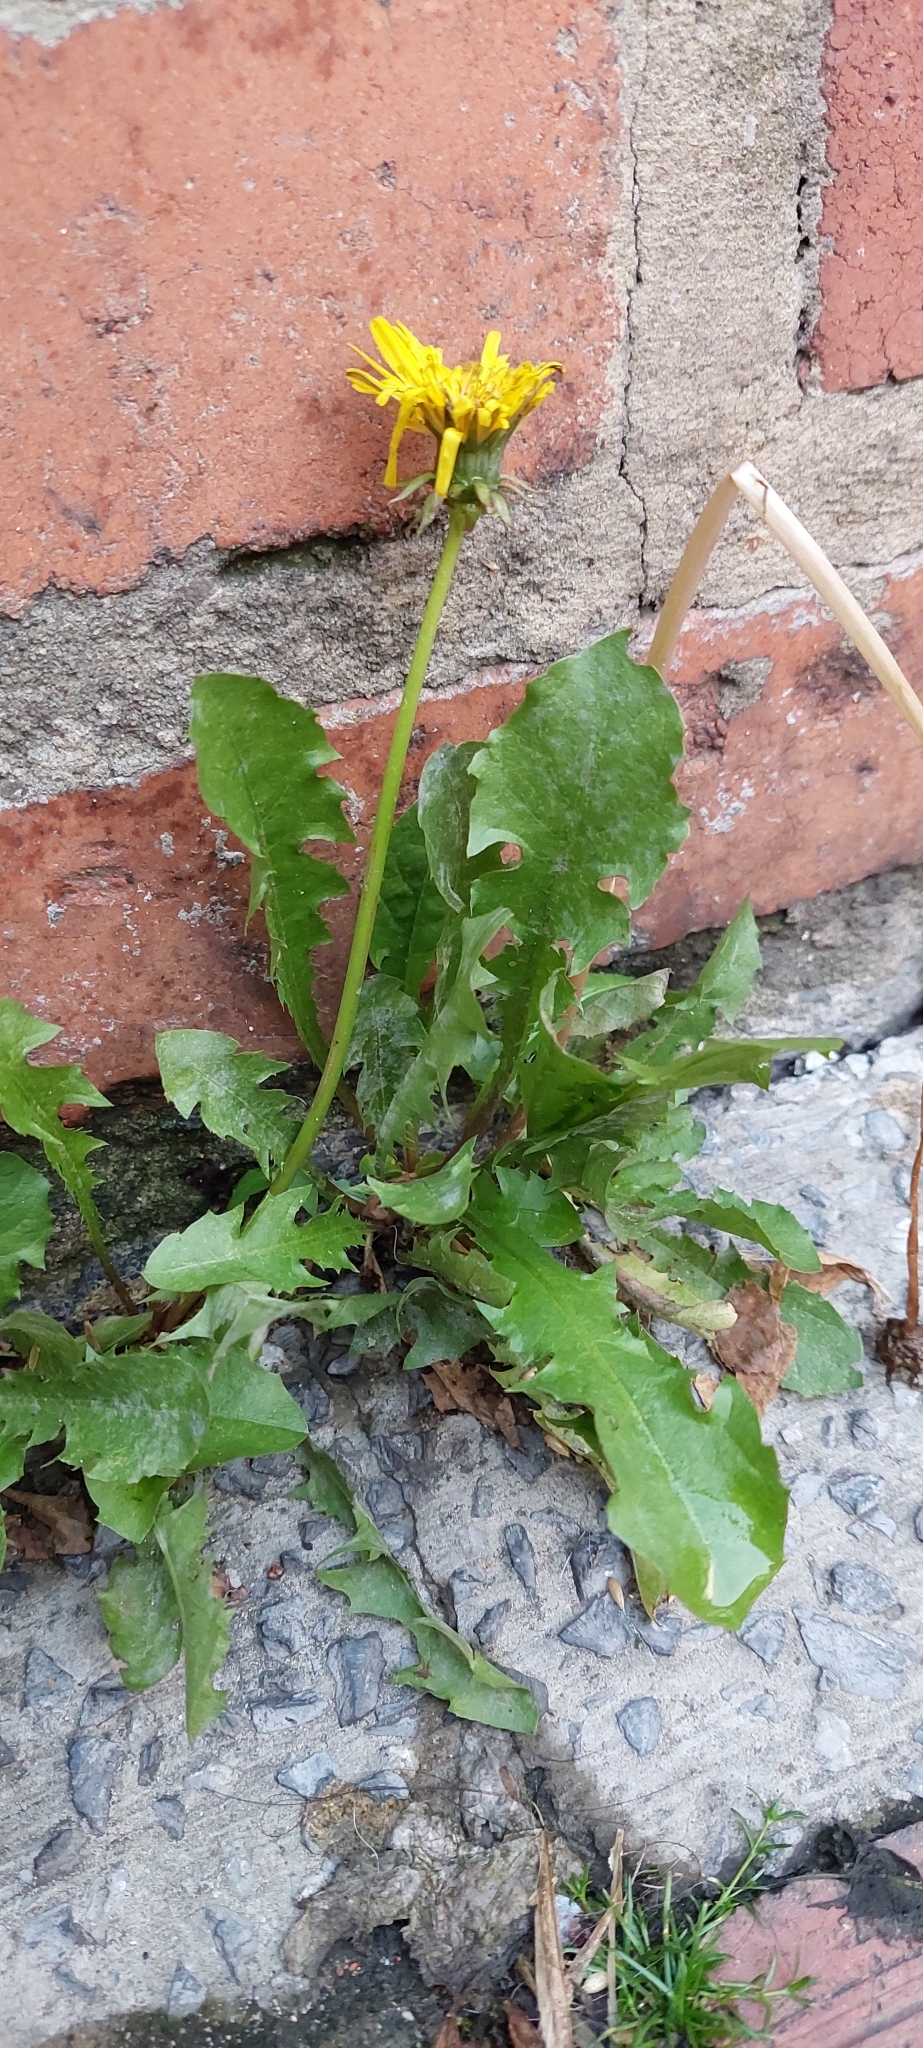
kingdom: Plantae
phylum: Tracheophyta
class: Magnoliopsida
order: Asterales
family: Asteraceae
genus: Taraxacum
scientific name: Taraxacum
